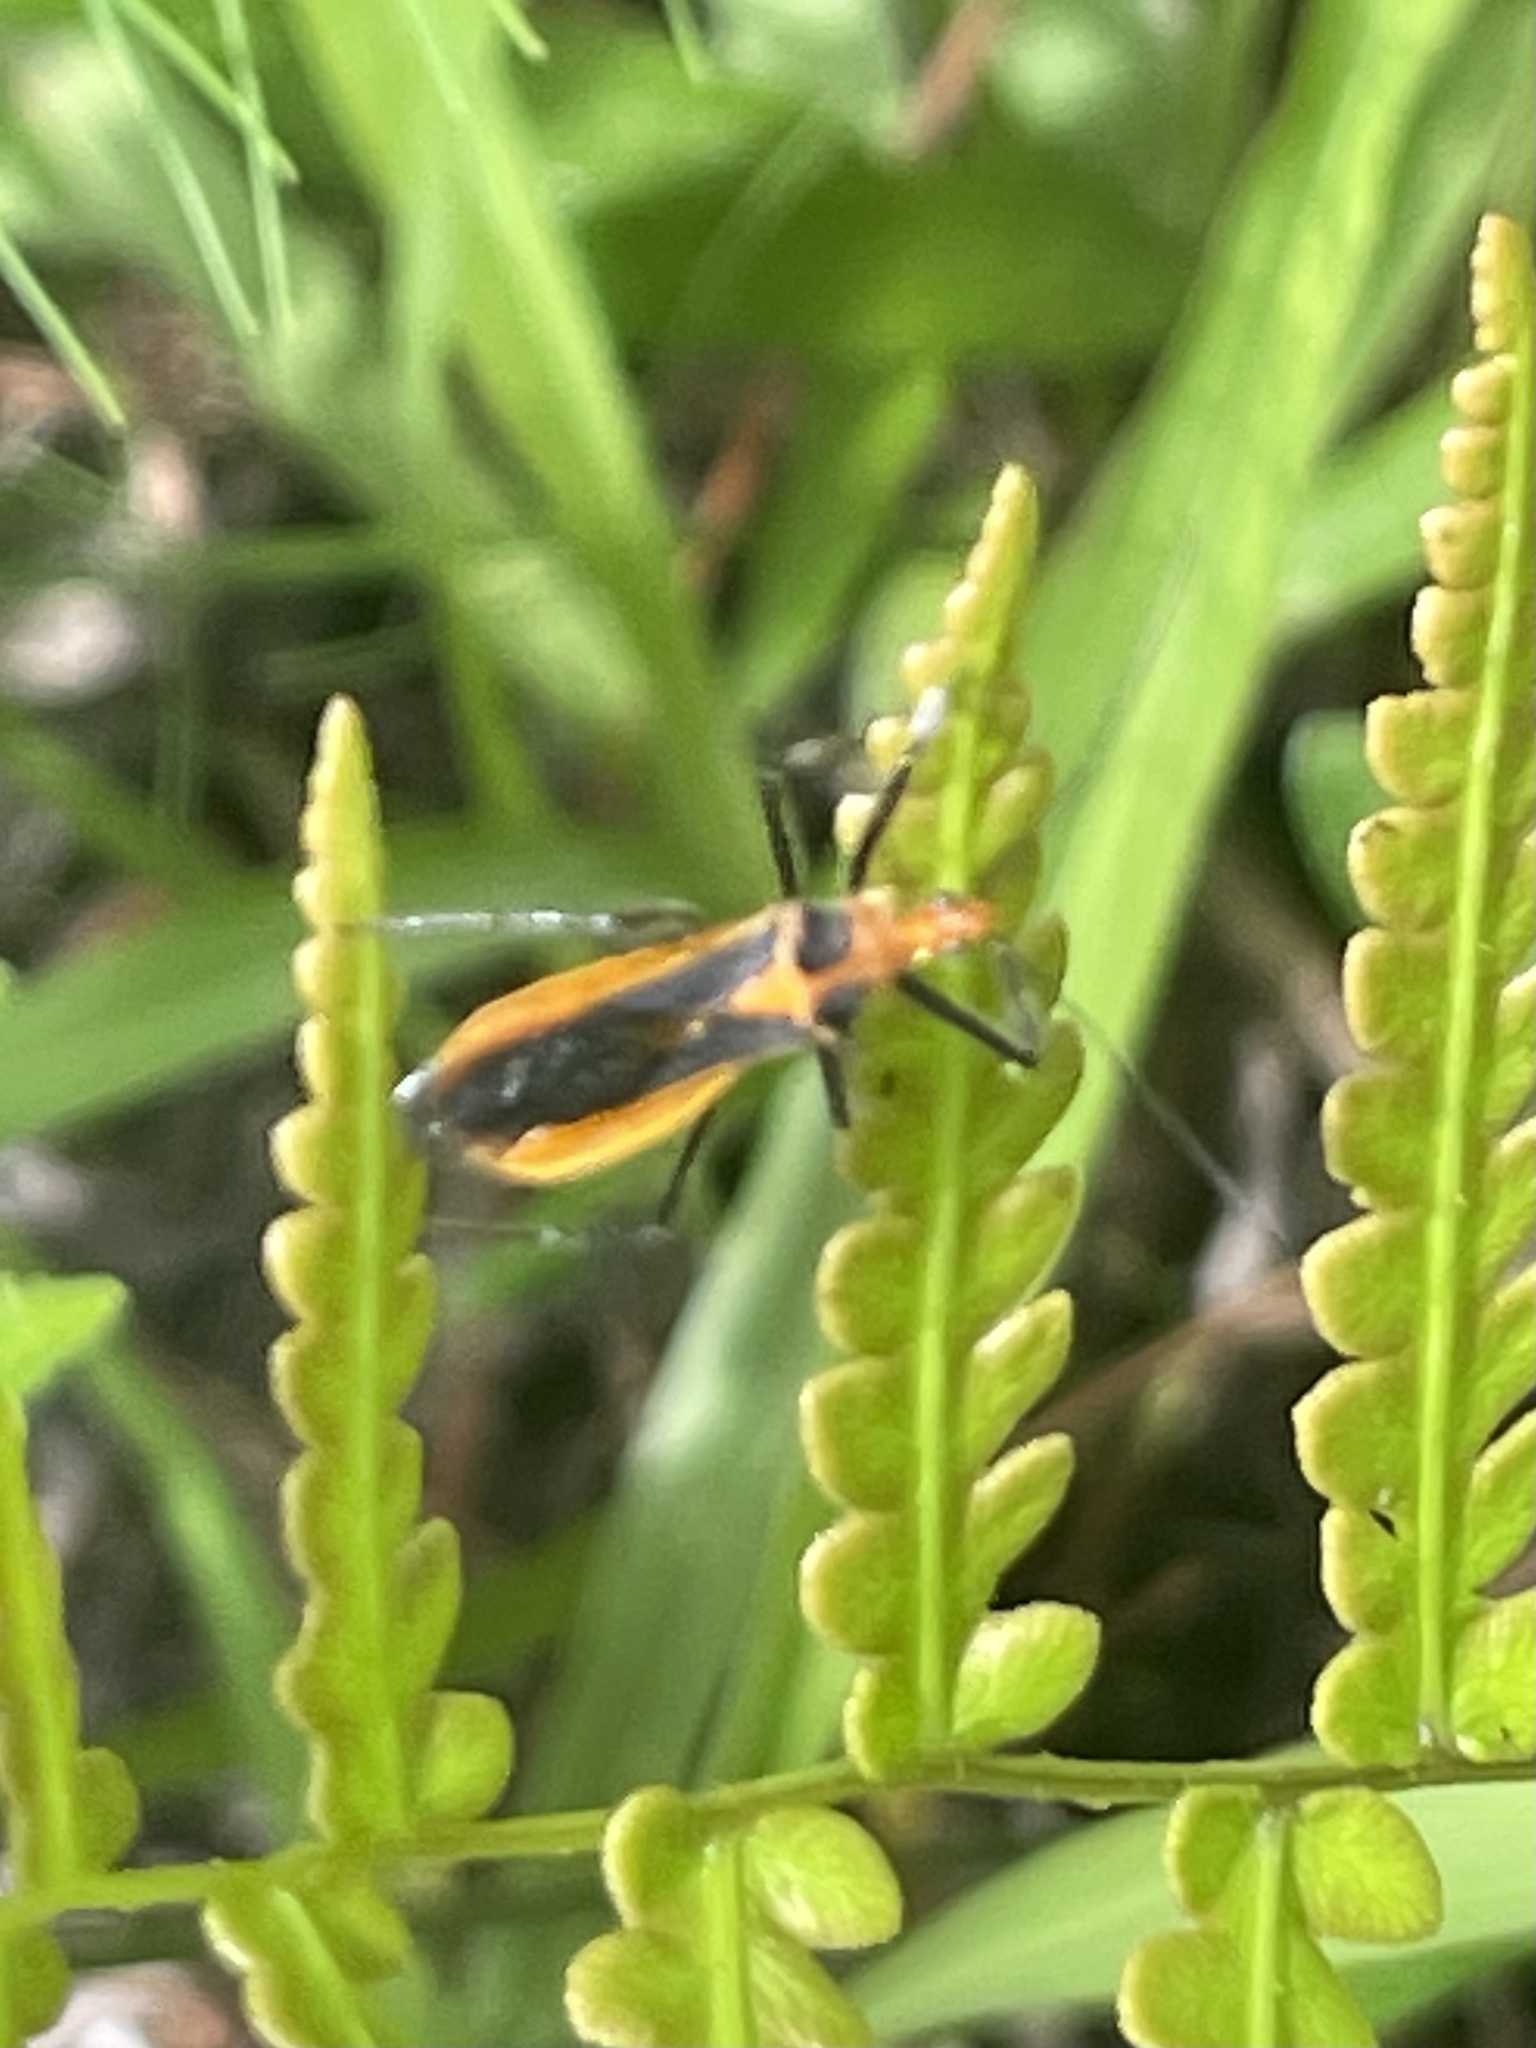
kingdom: Animalia
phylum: Arthropoda
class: Insecta
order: Hemiptera
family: Reduviidae
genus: Repipta
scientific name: Repipta taurus
